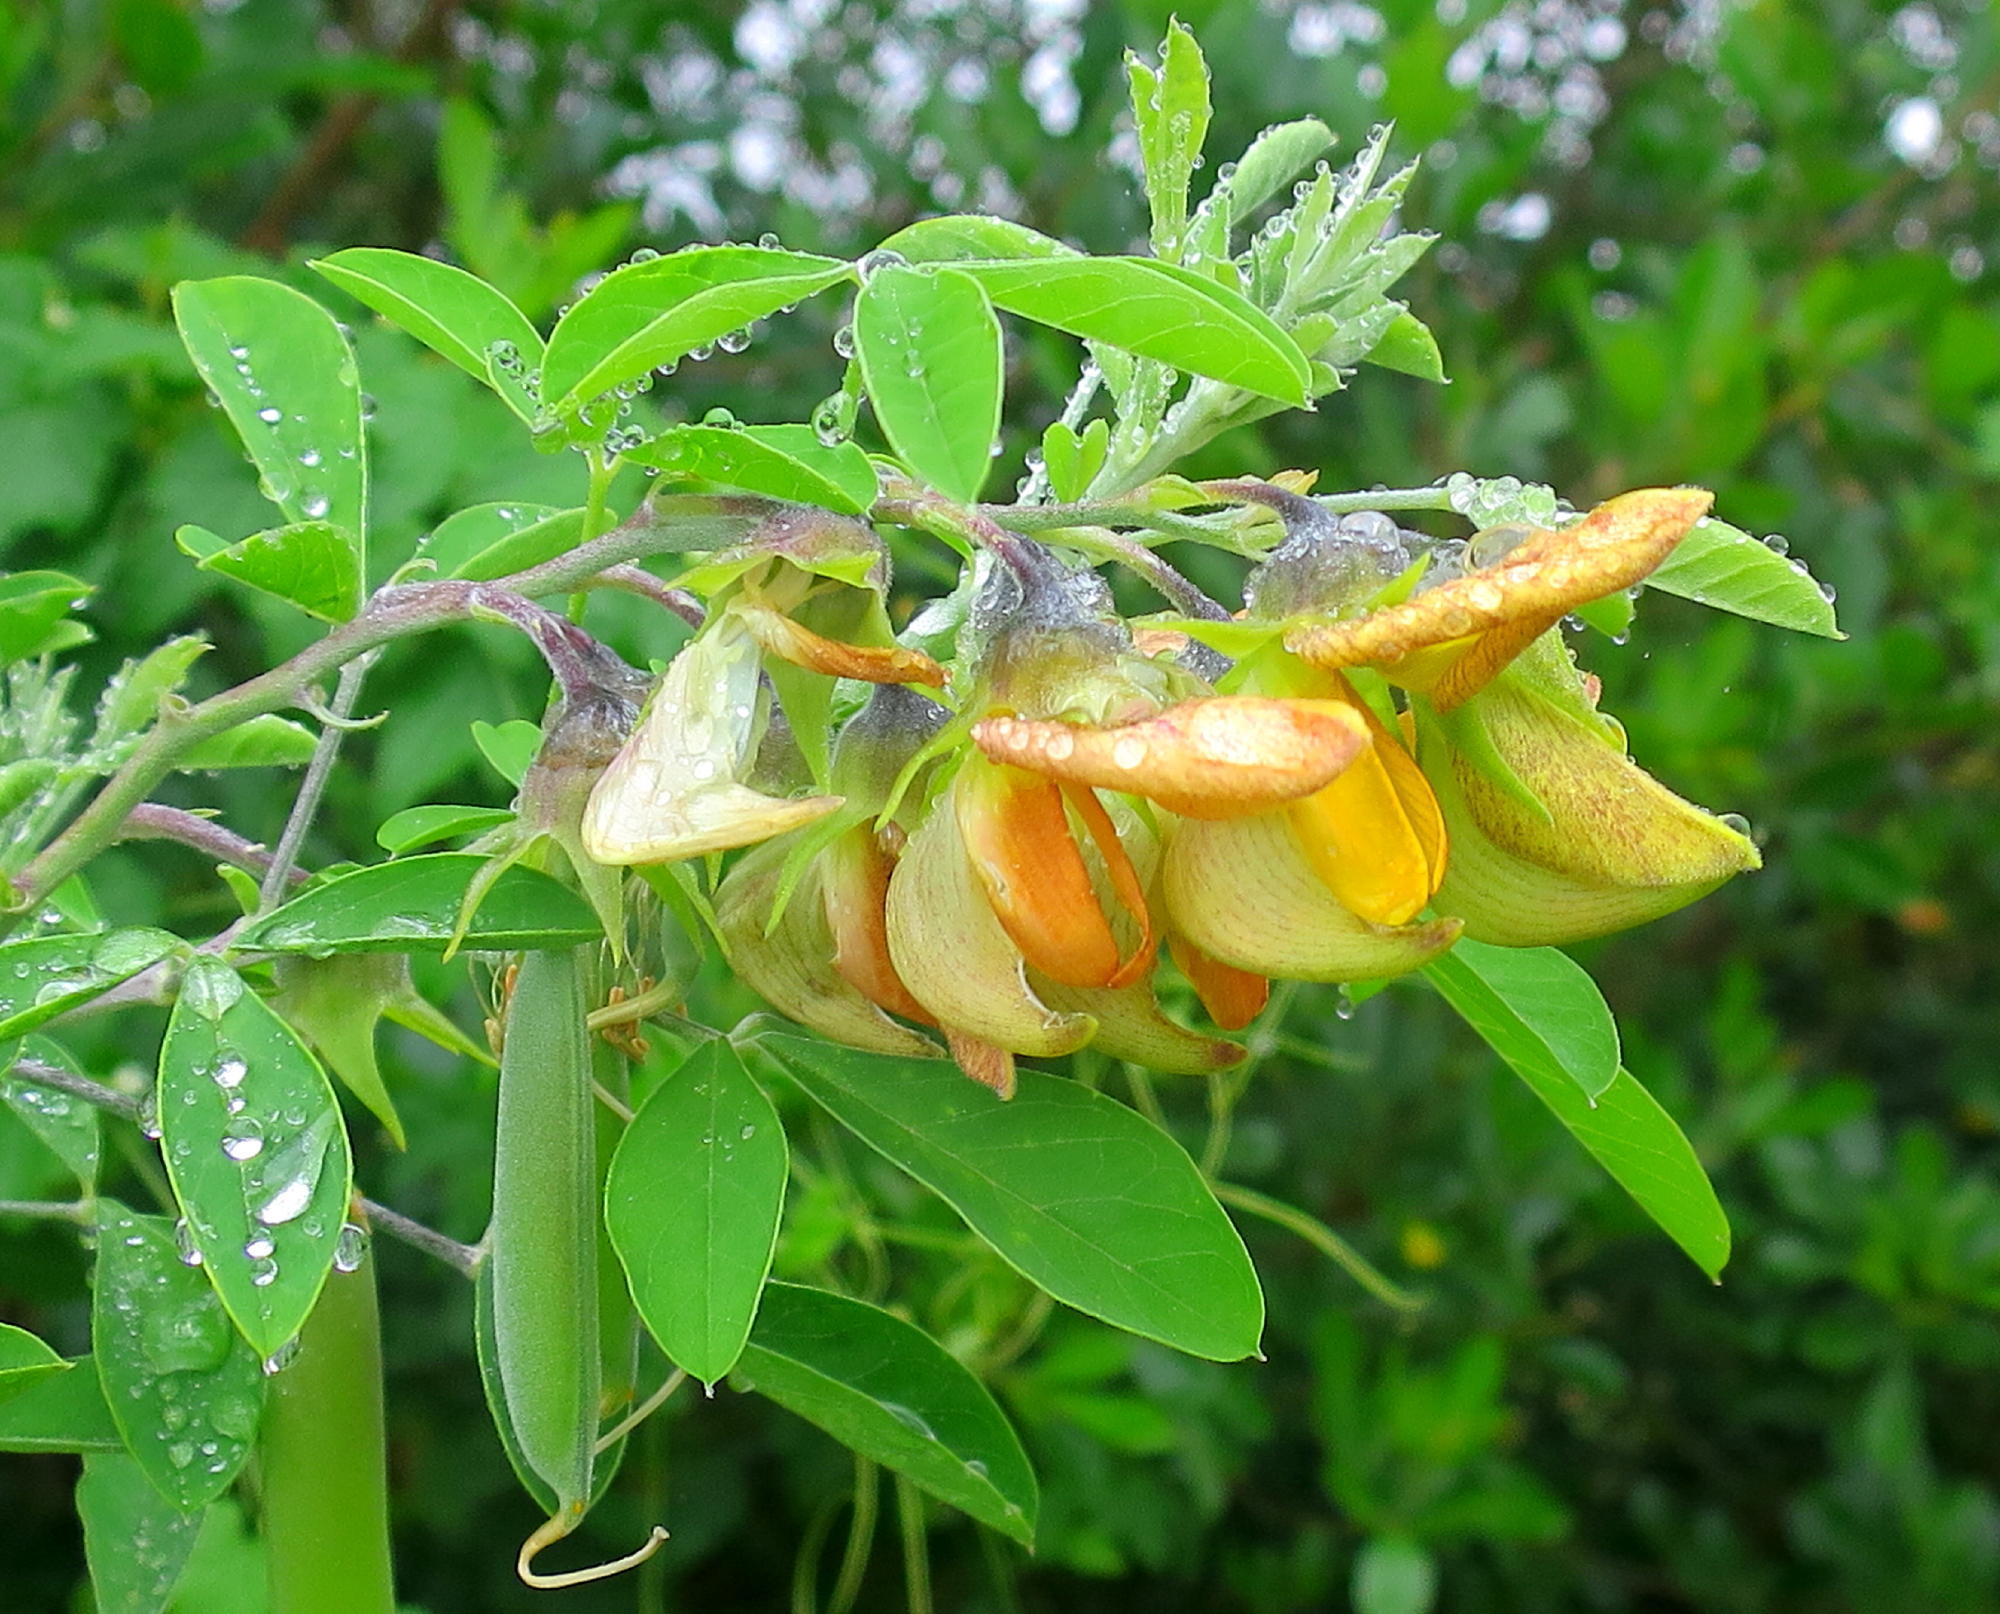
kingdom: Plantae
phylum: Tracheophyta
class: Magnoliopsida
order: Fabales
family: Fabaceae
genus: Crotalaria
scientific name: Crotalaria capensis
